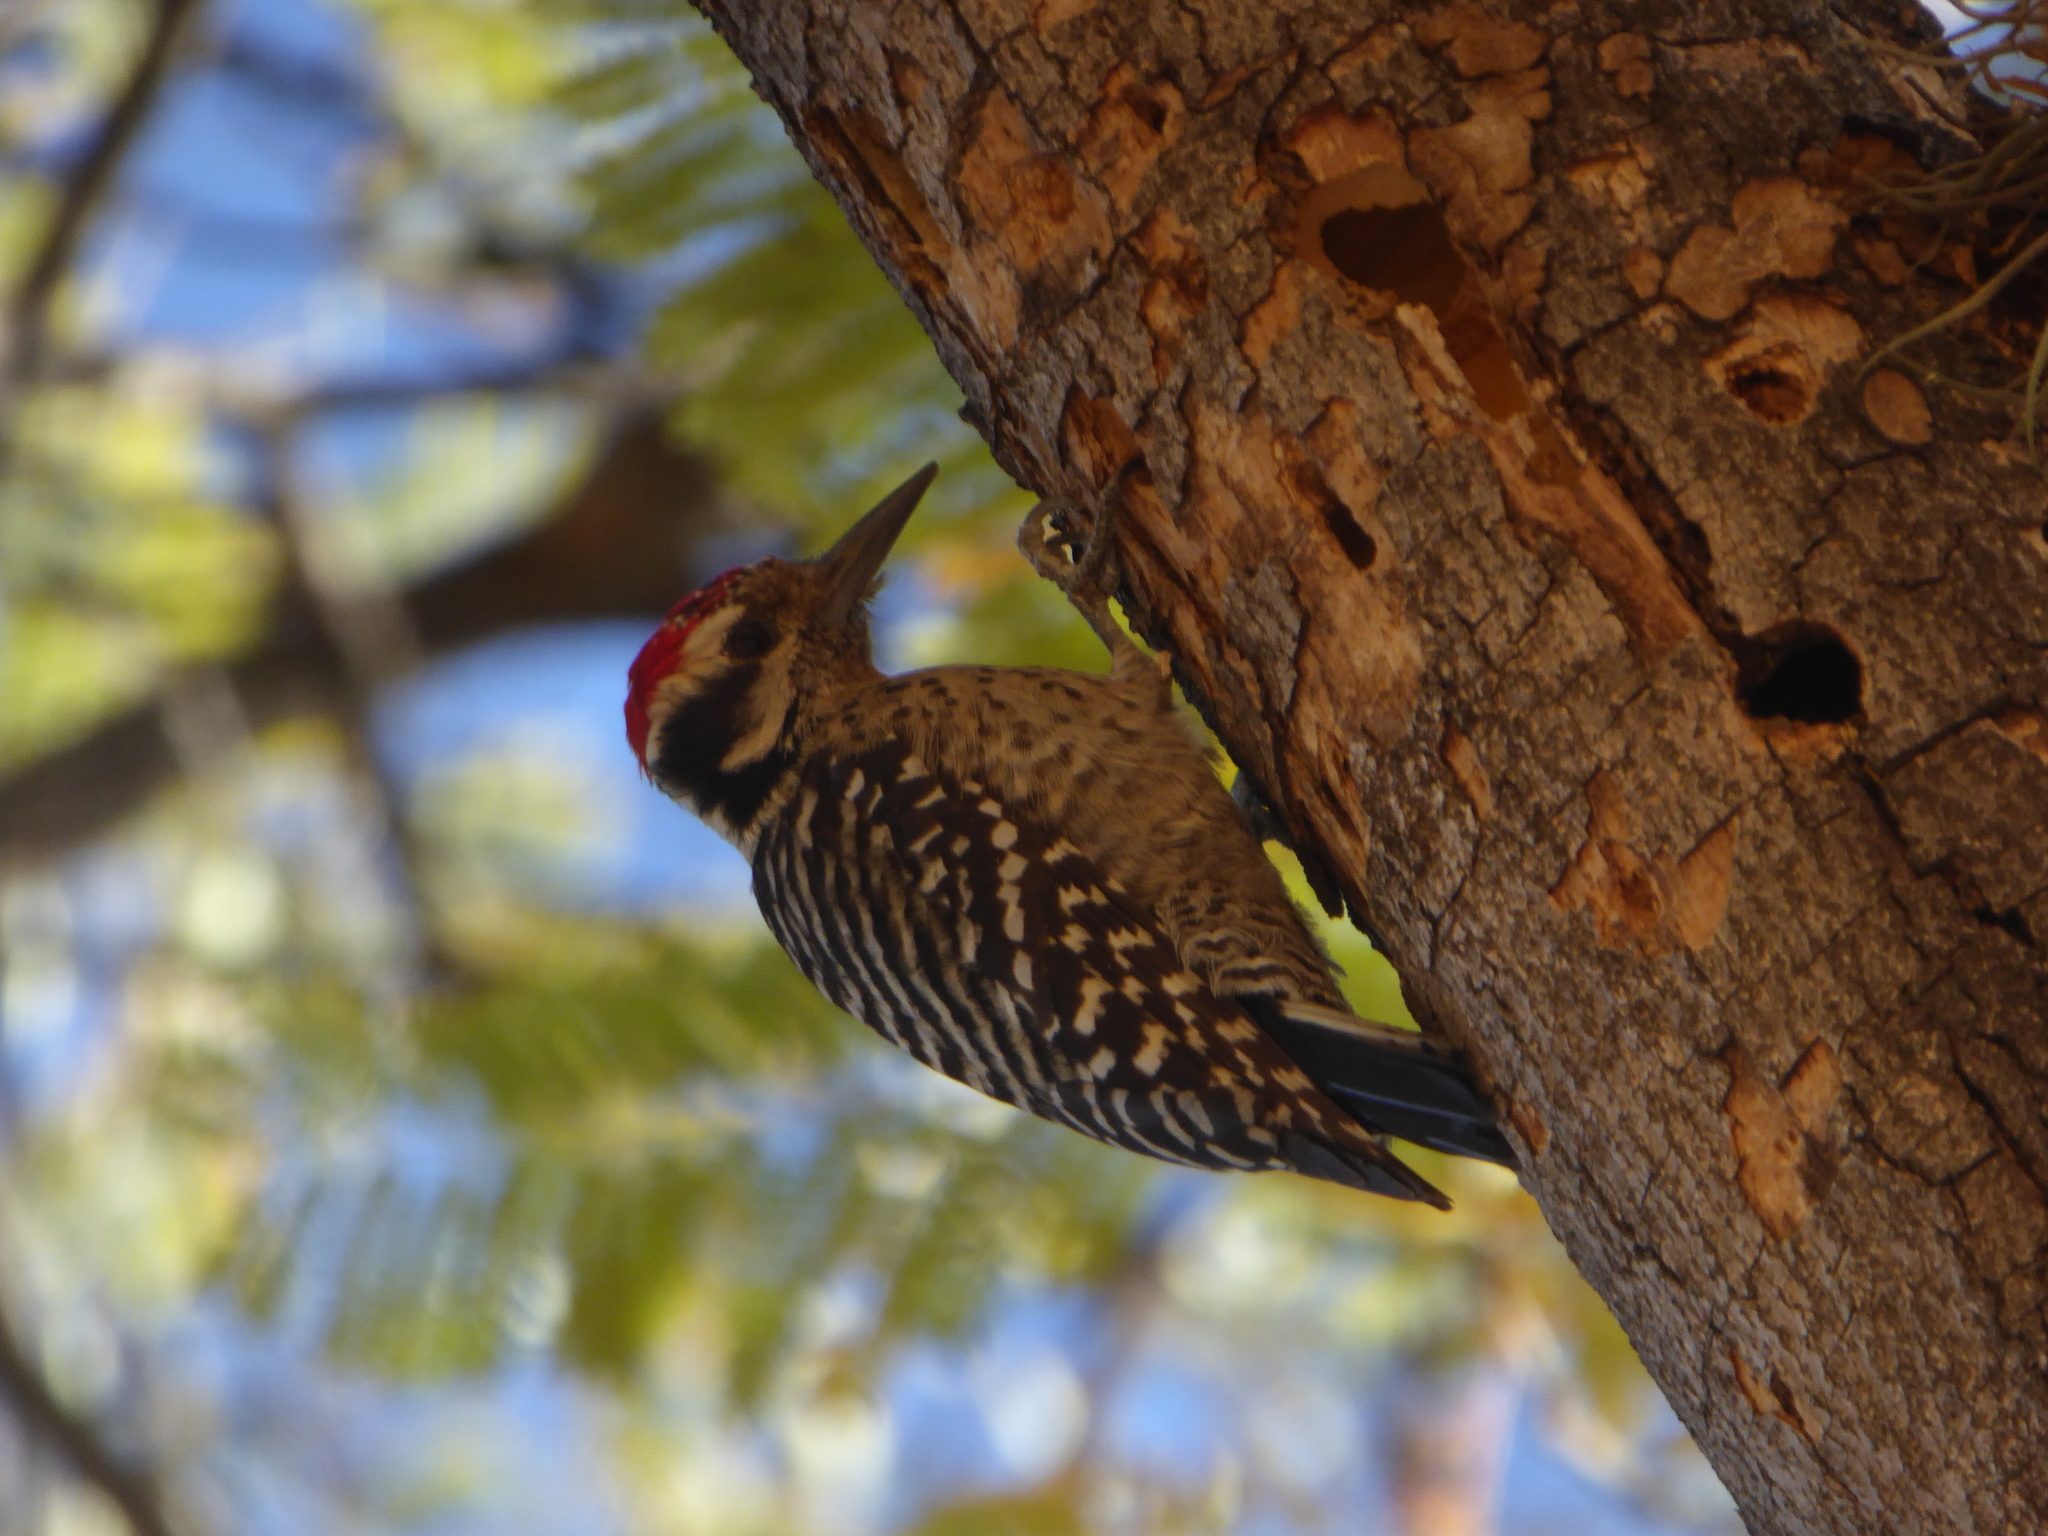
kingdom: Animalia
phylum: Chordata
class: Aves
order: Piciformes
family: Picidae
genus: Dryobates
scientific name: Dryobates scalaris
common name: Ladder-backed woodpecker
